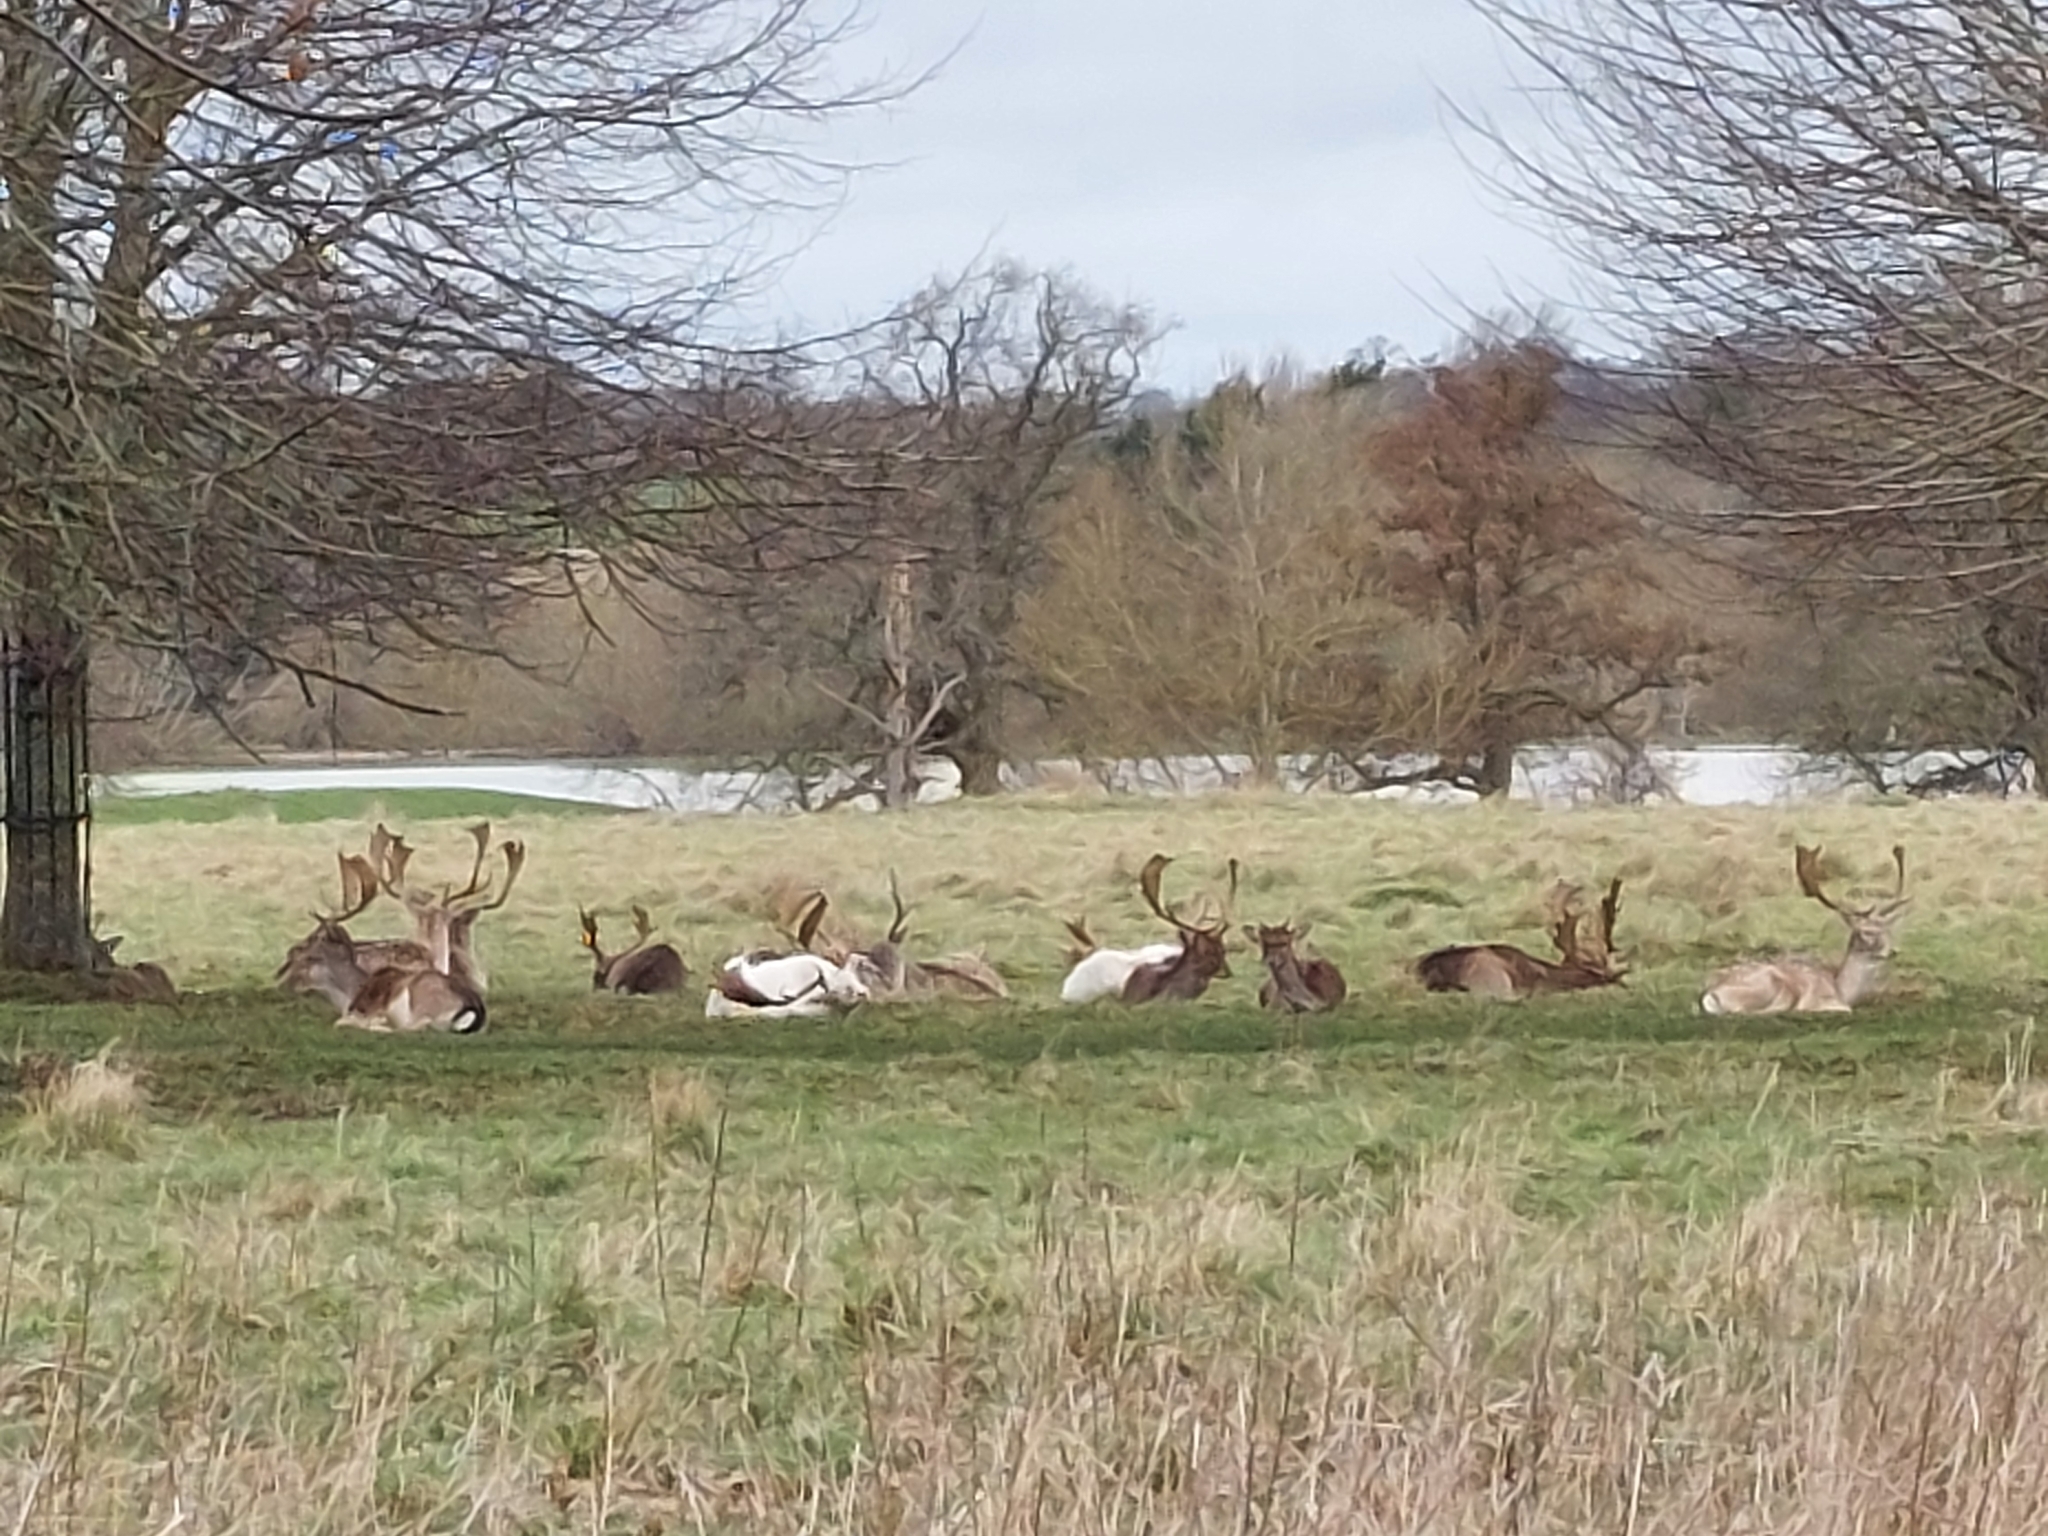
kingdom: Animalia
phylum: Chordata
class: Mammalia
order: Artiodactyla
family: Cervidae
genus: Dama
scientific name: Dama dama
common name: Fallow deer
